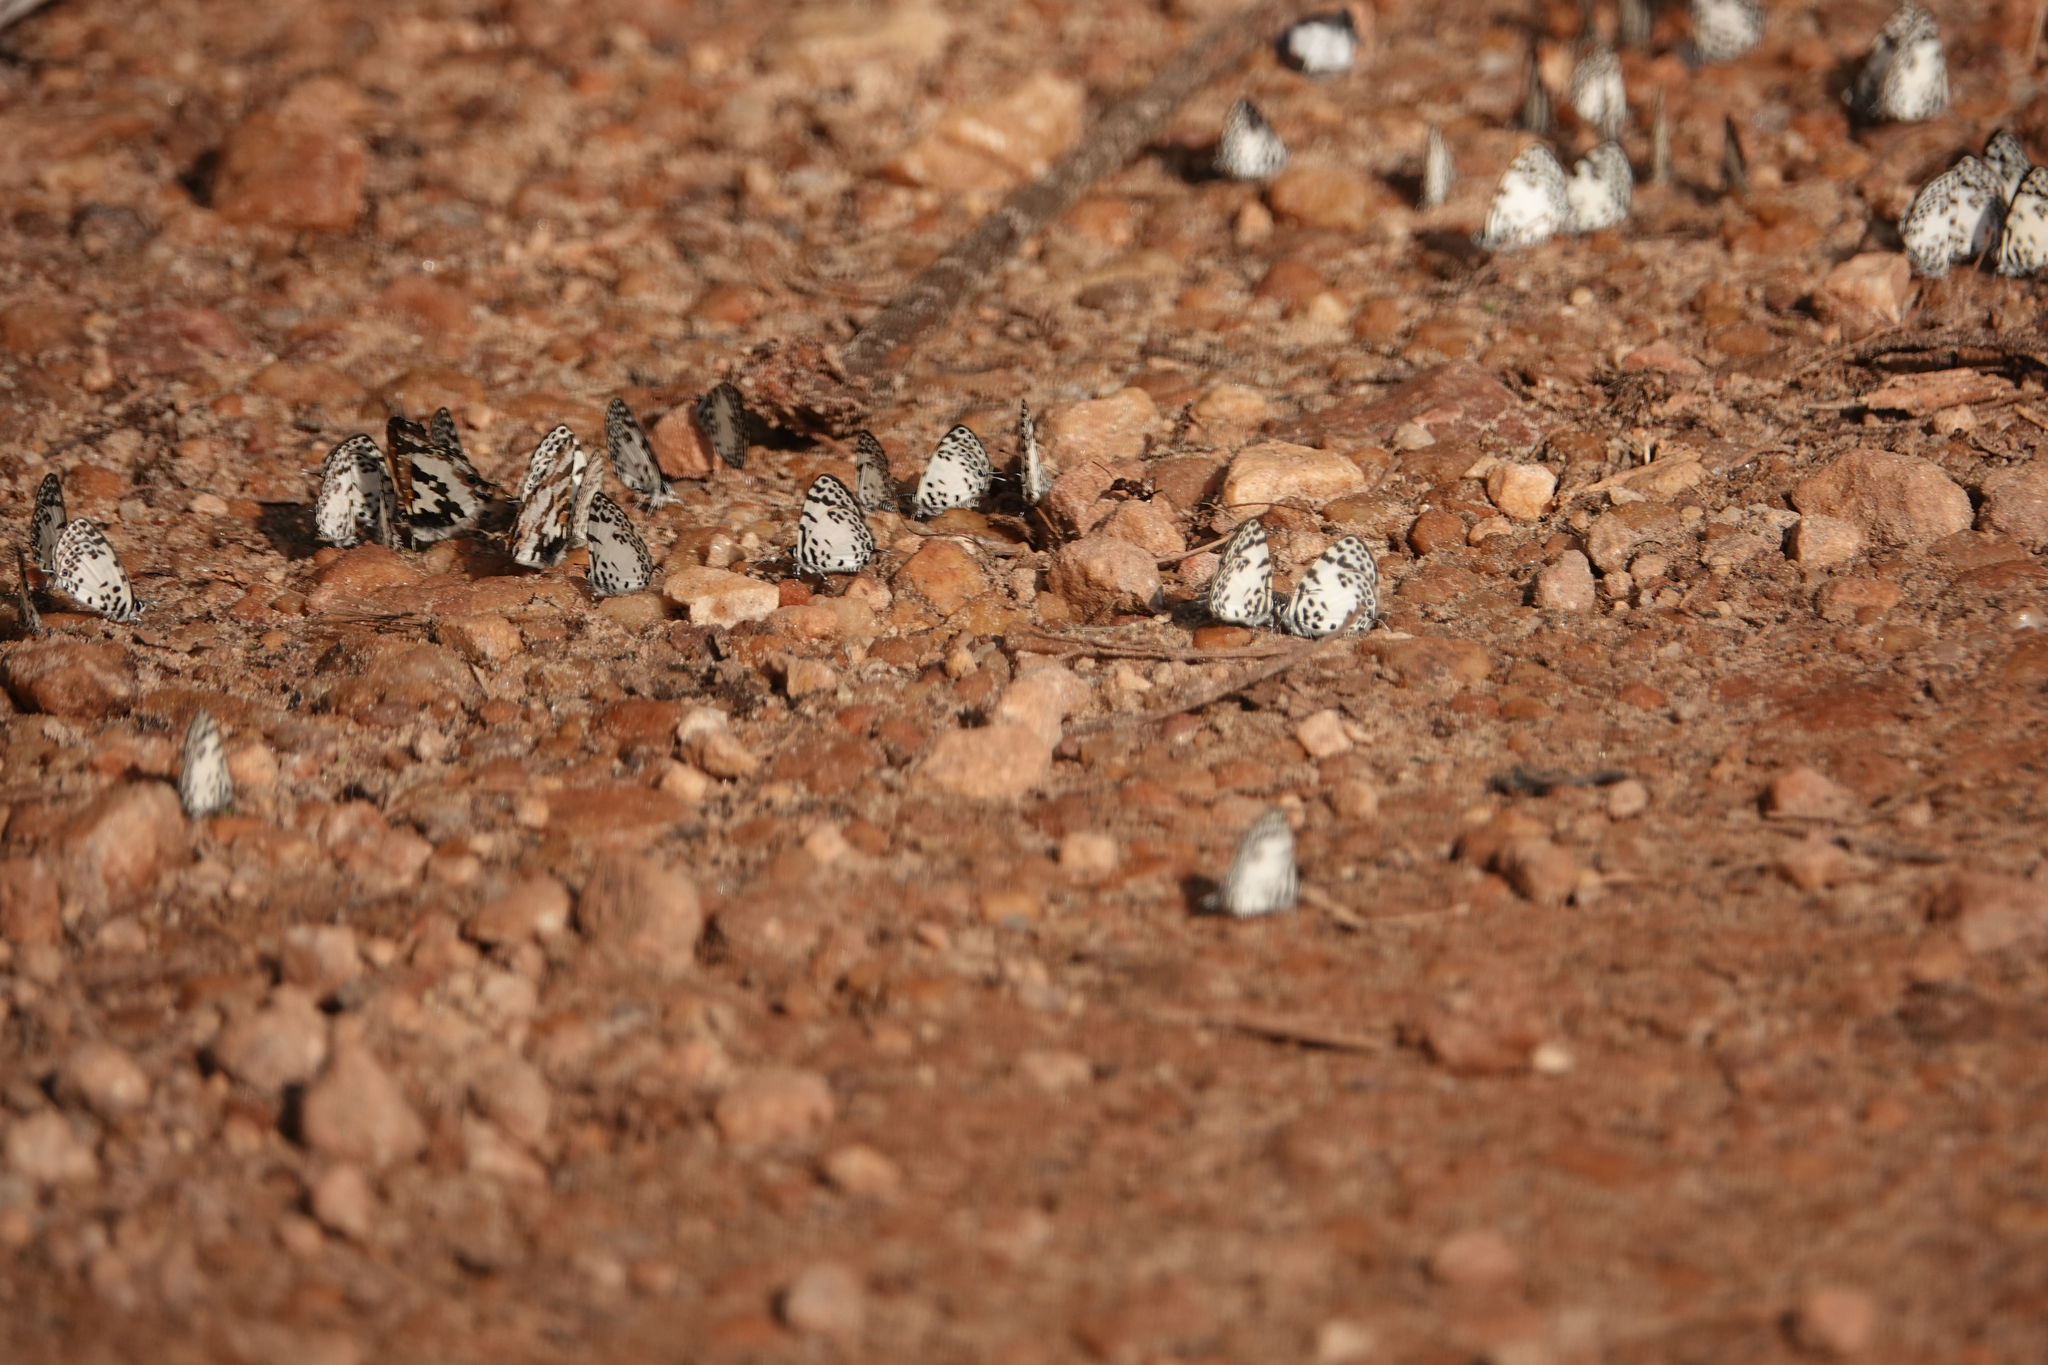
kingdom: Animalia
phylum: Arthropoda
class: Insecta
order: Lepidoptera
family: Lycaenidae
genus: Castalius
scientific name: Castalius margaritaceus
